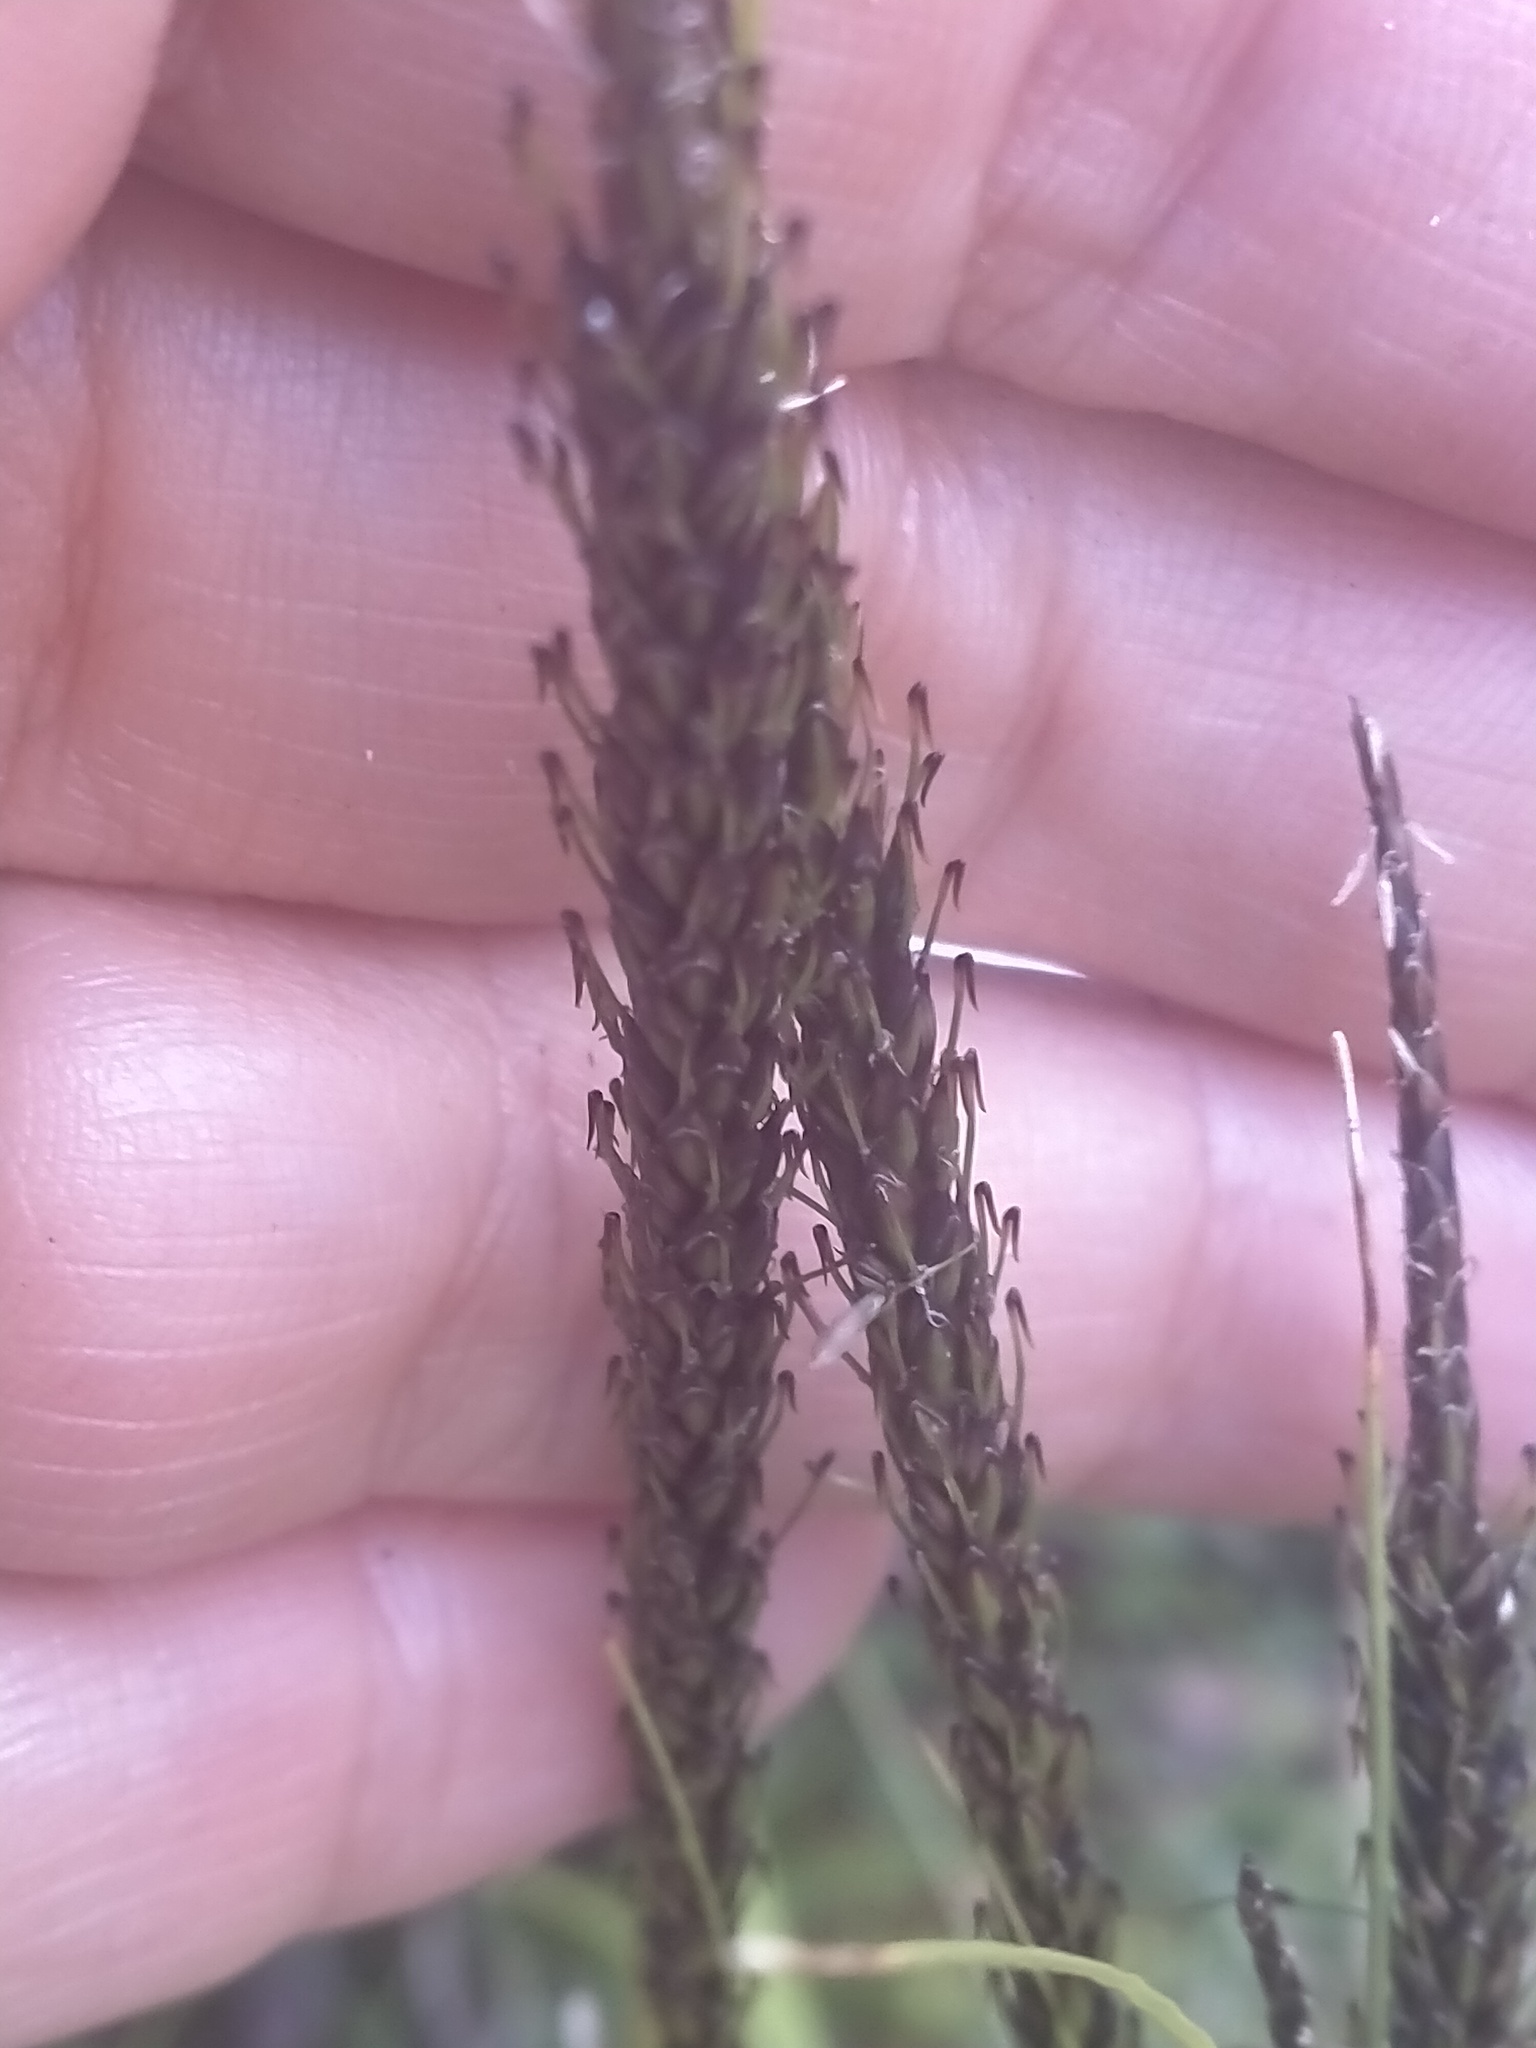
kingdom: Plantae
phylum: Tracheophyta
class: Liliopsida
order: Poales
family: Cyperaceae
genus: Carex
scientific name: Carex uncinata
